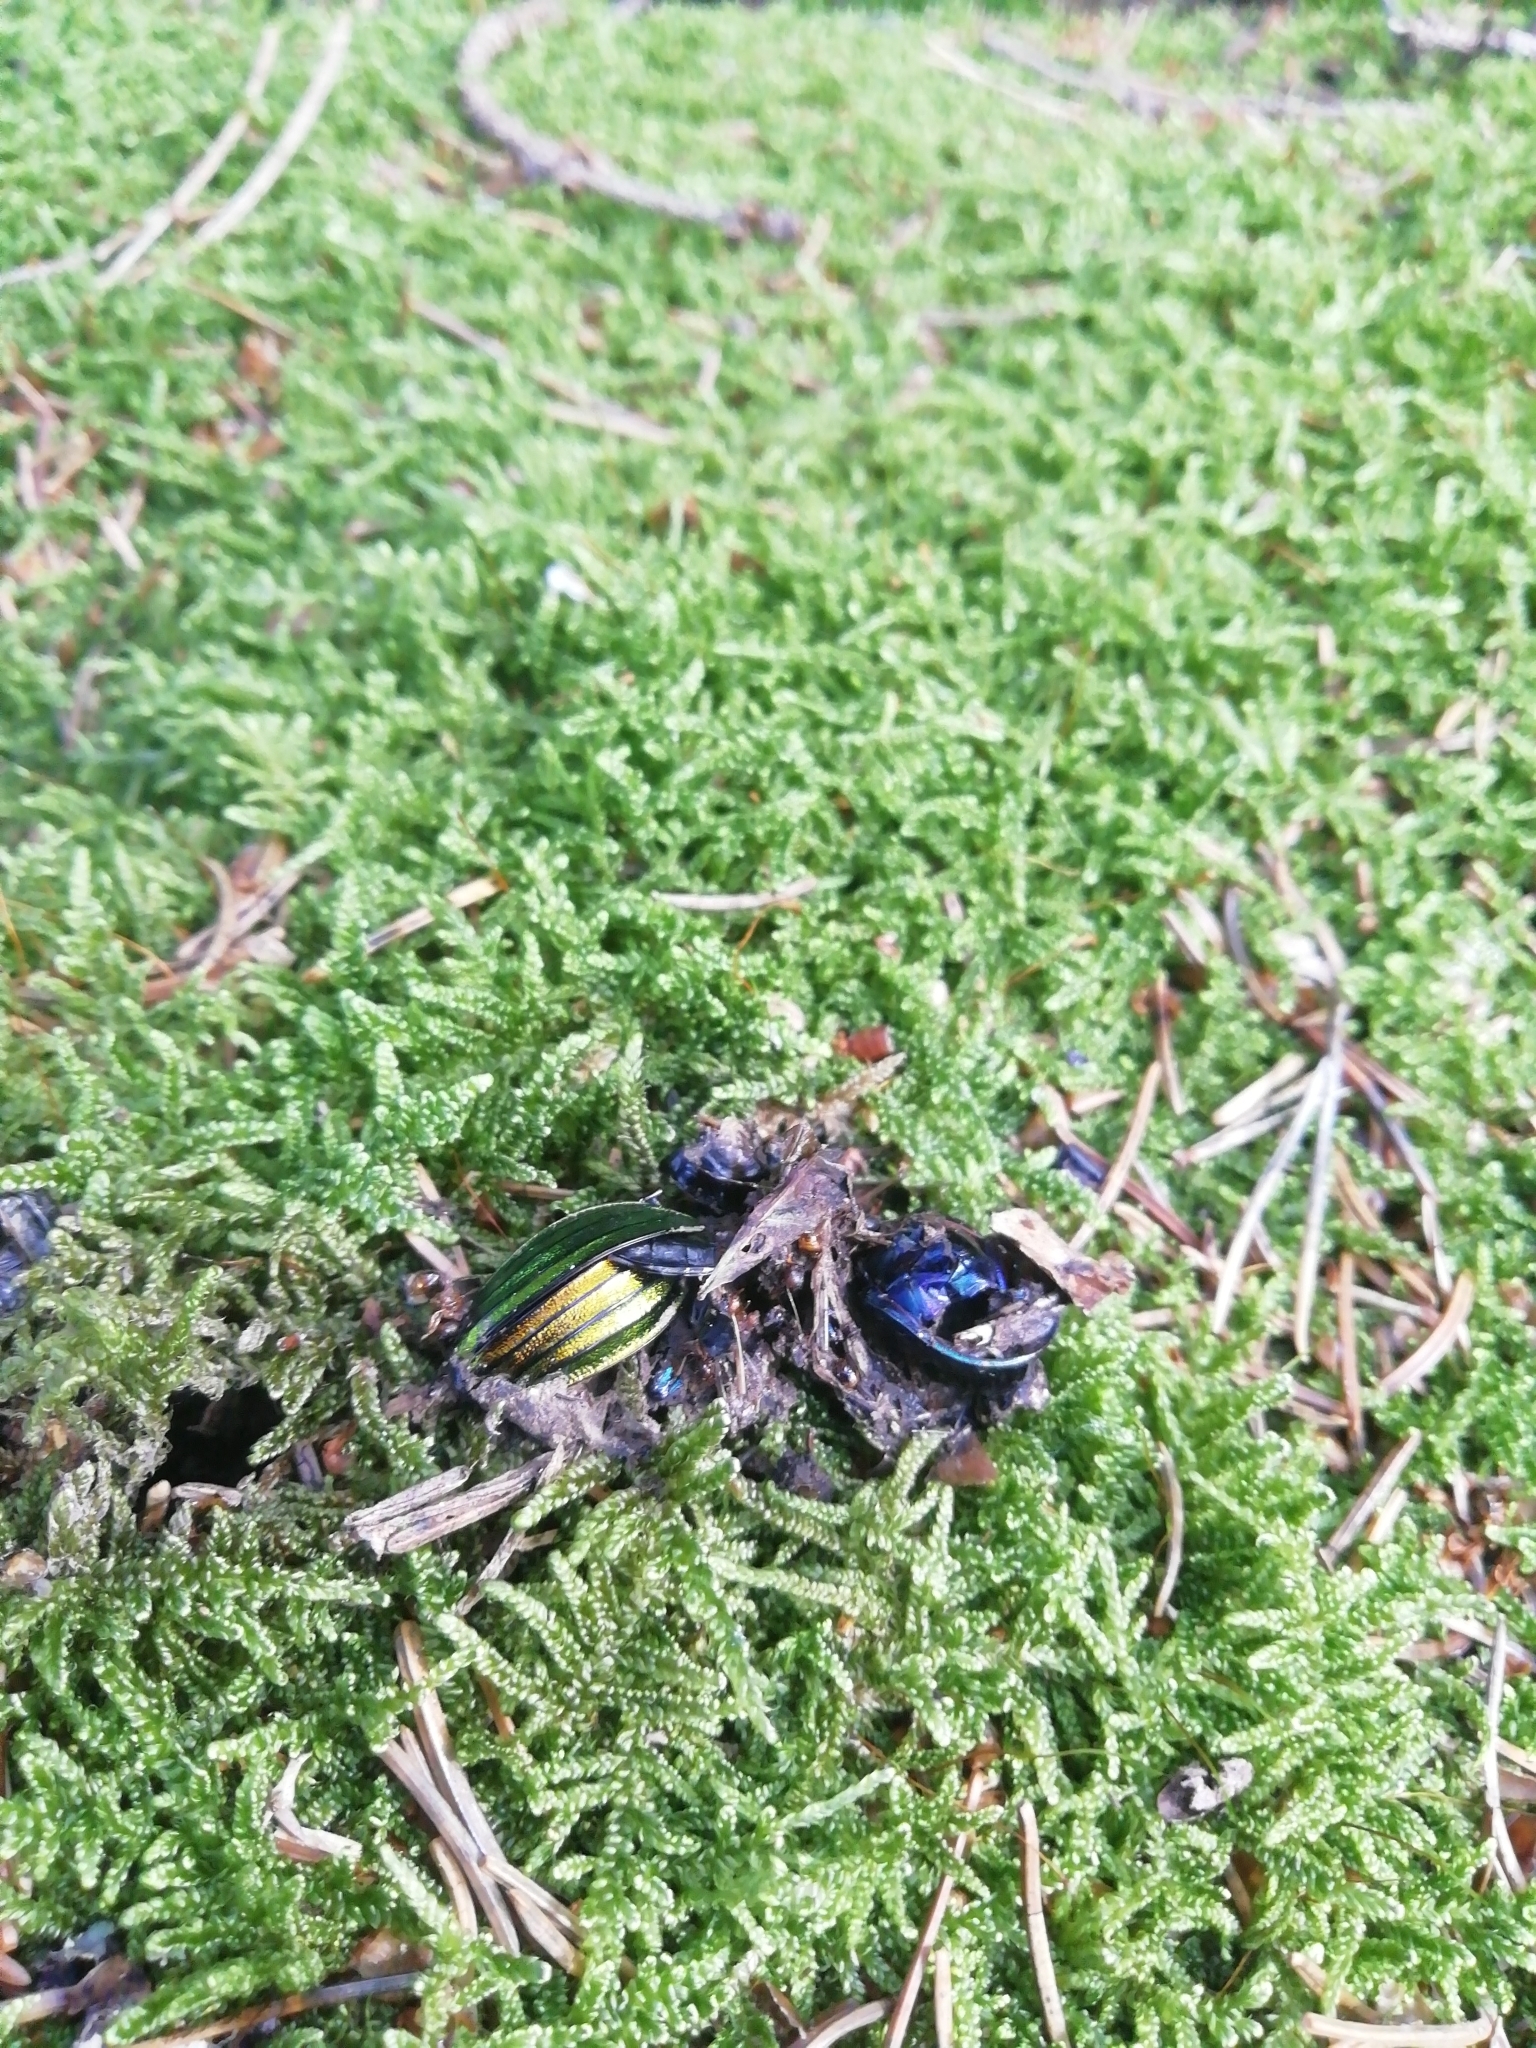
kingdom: Animalia
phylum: Arthropoda
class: Insecta
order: Coleoptera
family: Carabidae
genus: Carabus
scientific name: Carabus auronitens
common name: Carabus auronitens
